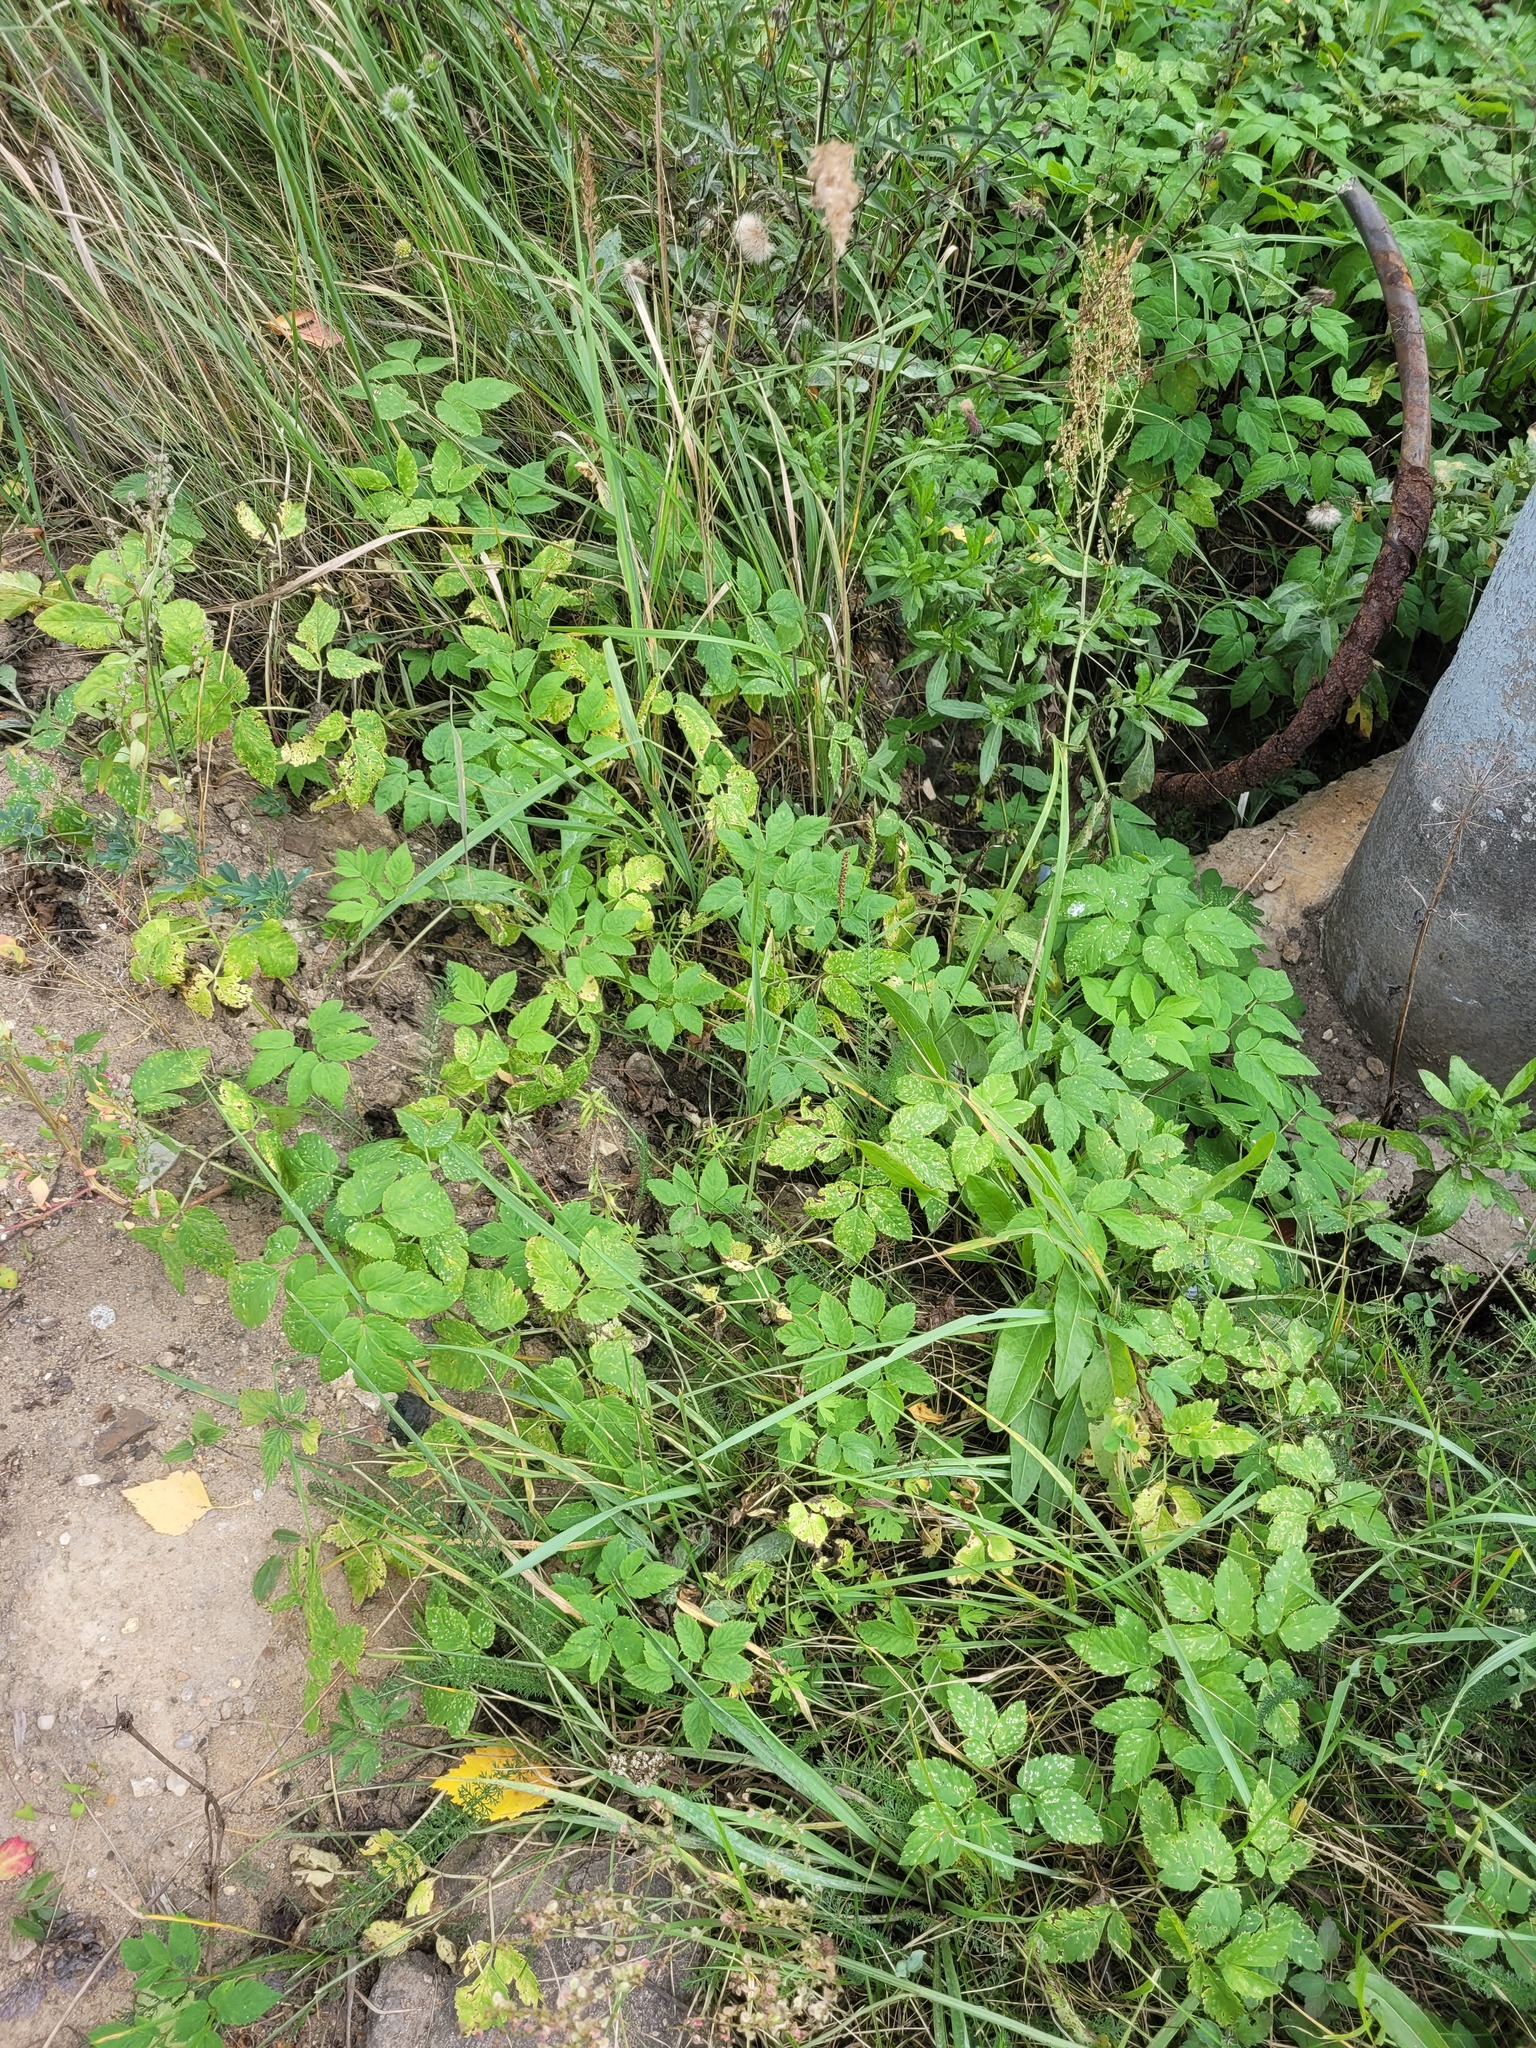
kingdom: Plantae
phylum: Tracheophyta
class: Magnoliopsida
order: Apiales
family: Apiaceae
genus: Aegopodium
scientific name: Aegopodium podagraria
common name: Ground-elder
